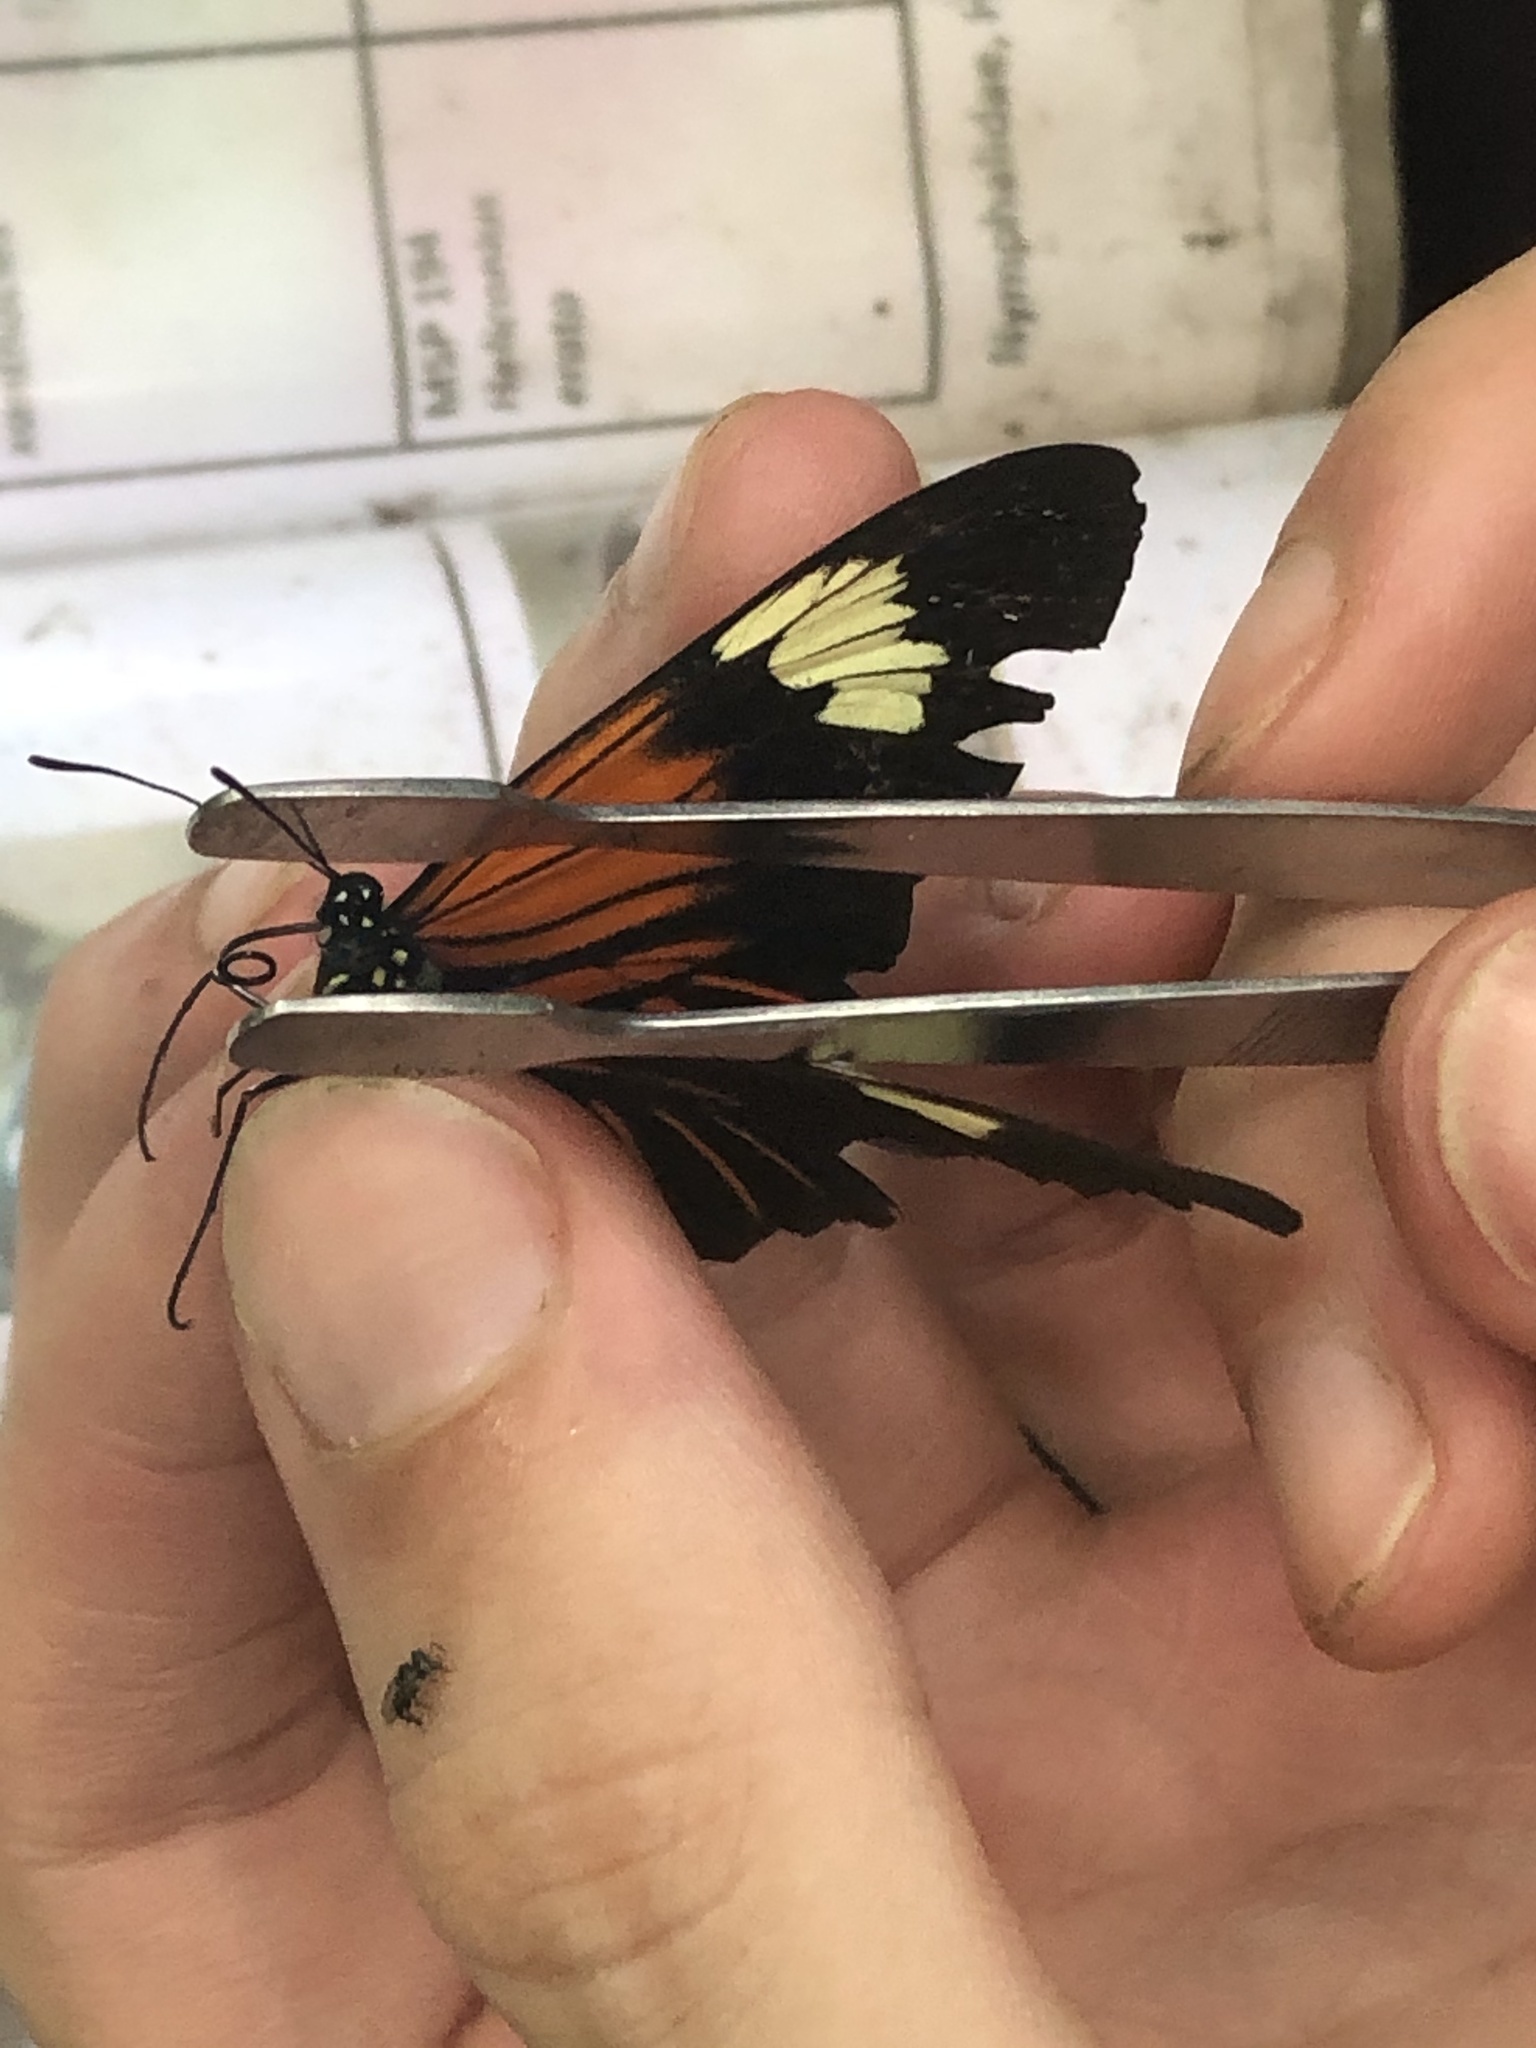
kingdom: Animalia
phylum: Arthropoda
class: Insecta
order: Lepidoptera
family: Nymphalidae
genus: Heliconius
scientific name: Heliconius melpomene
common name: Postman
